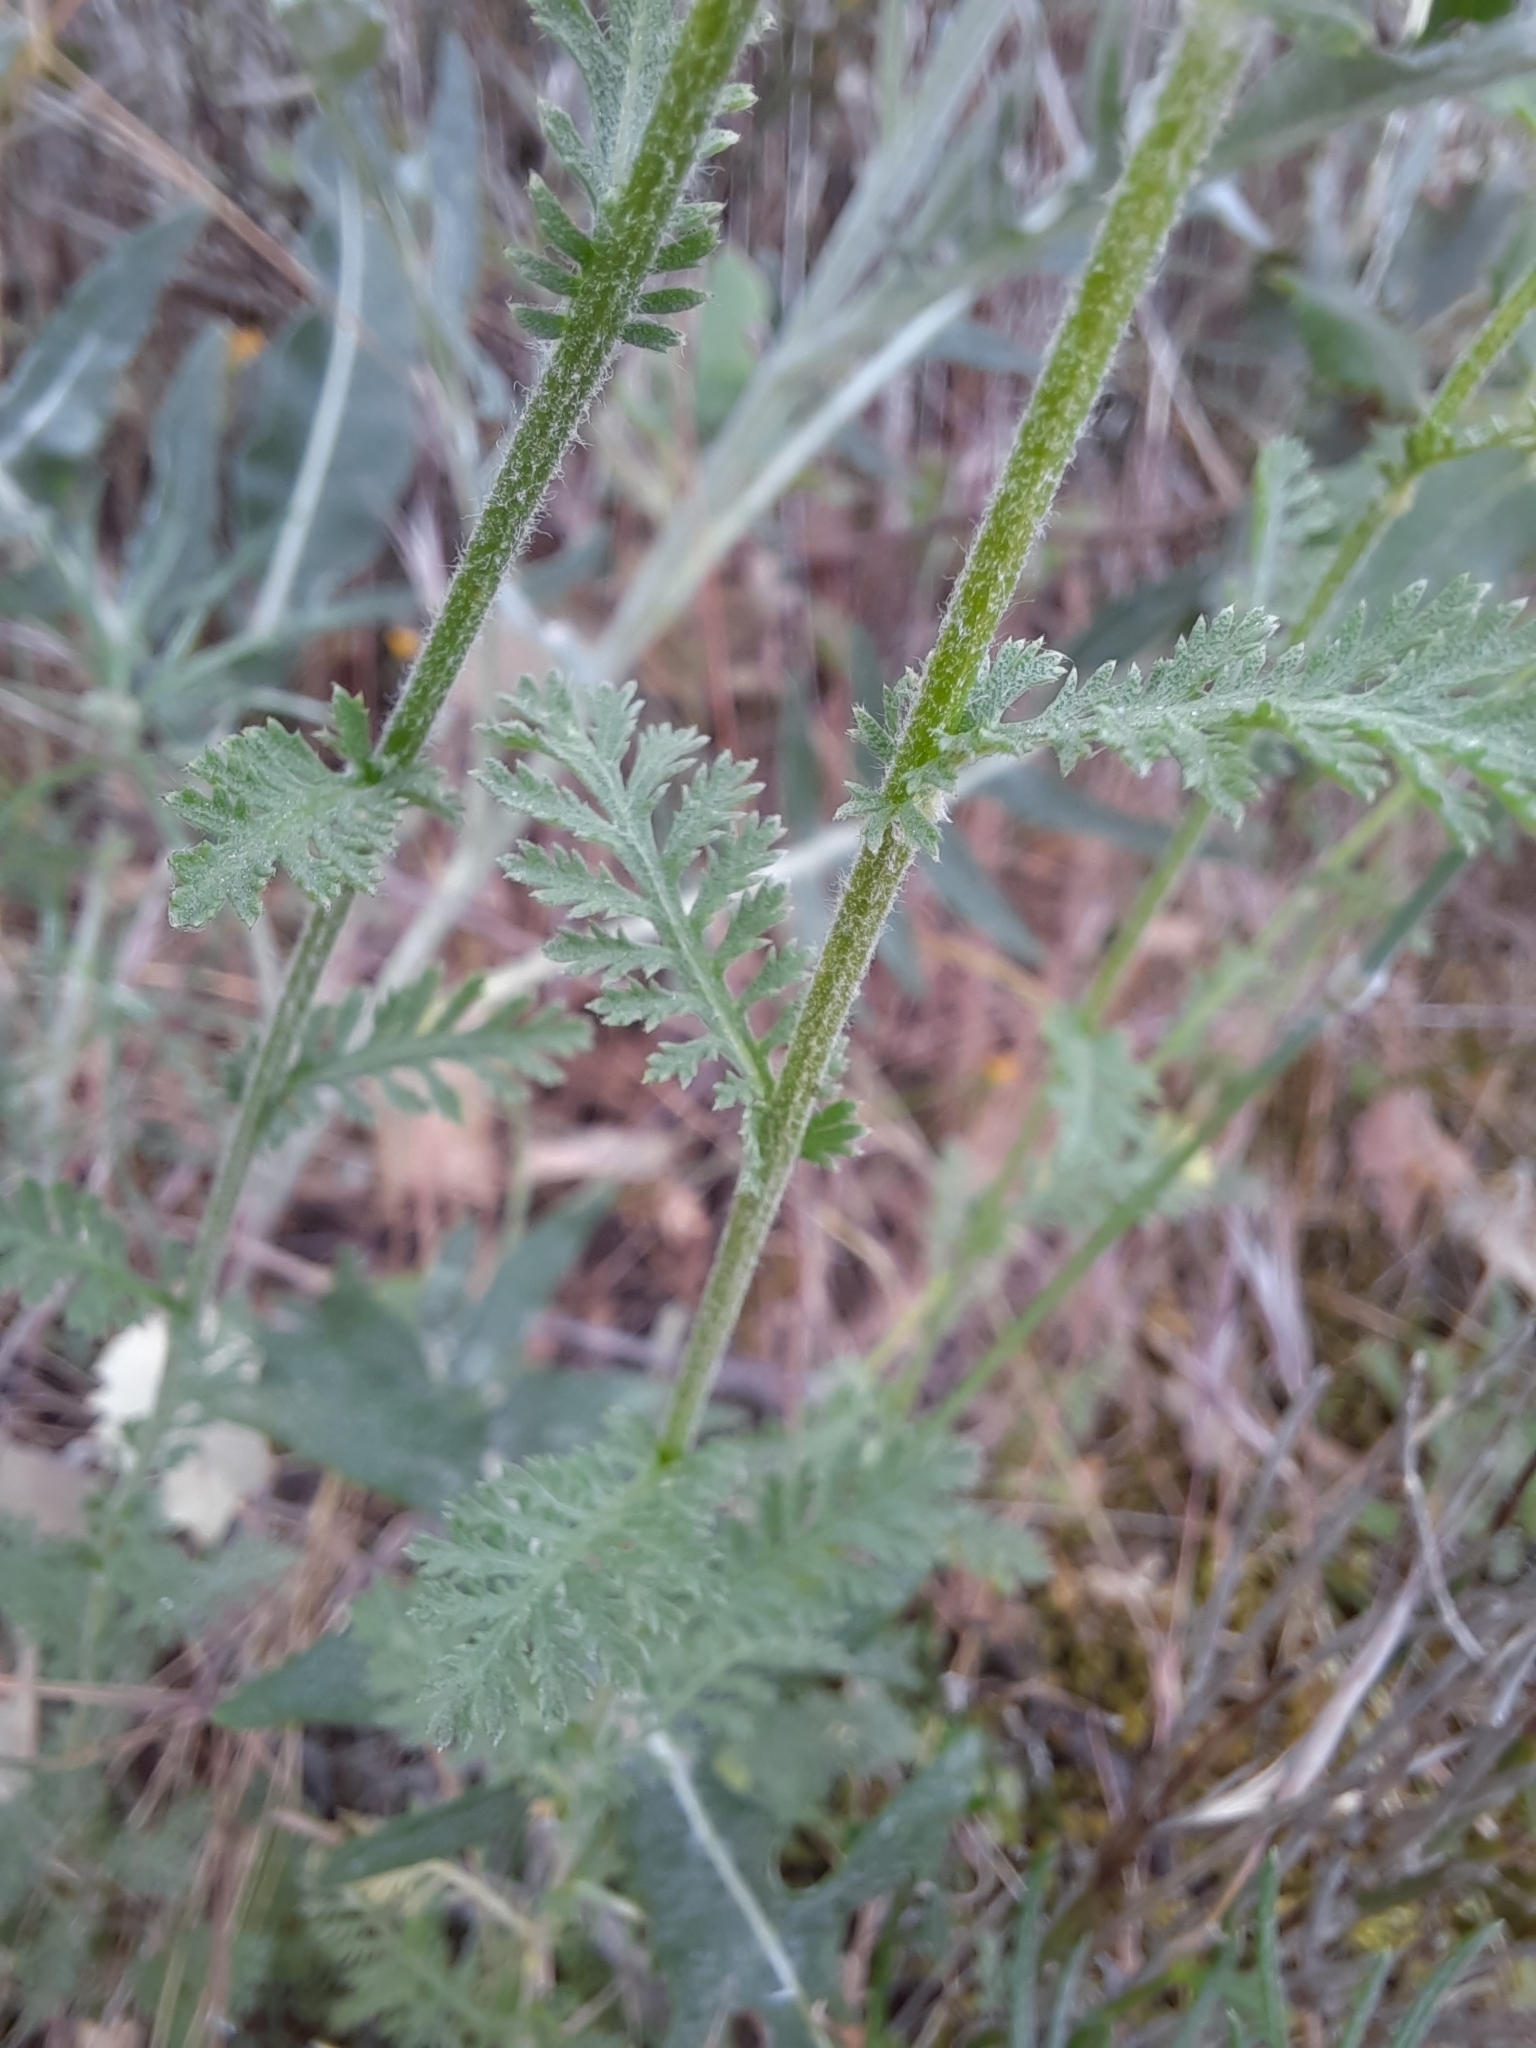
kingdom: Plantae
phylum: Tracheophyta
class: Magnoliopsida
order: Asterales
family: Asteraceae
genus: Achillea
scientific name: Achillea millefolium
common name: Yarrow
